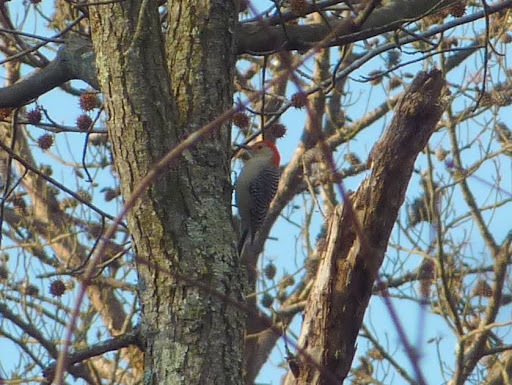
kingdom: Animalia
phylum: Chordata
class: Aves
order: Piciformes
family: Picidae
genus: Melanerpes
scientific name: Melanerpes carolinus
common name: Red-bellied woodpecker
